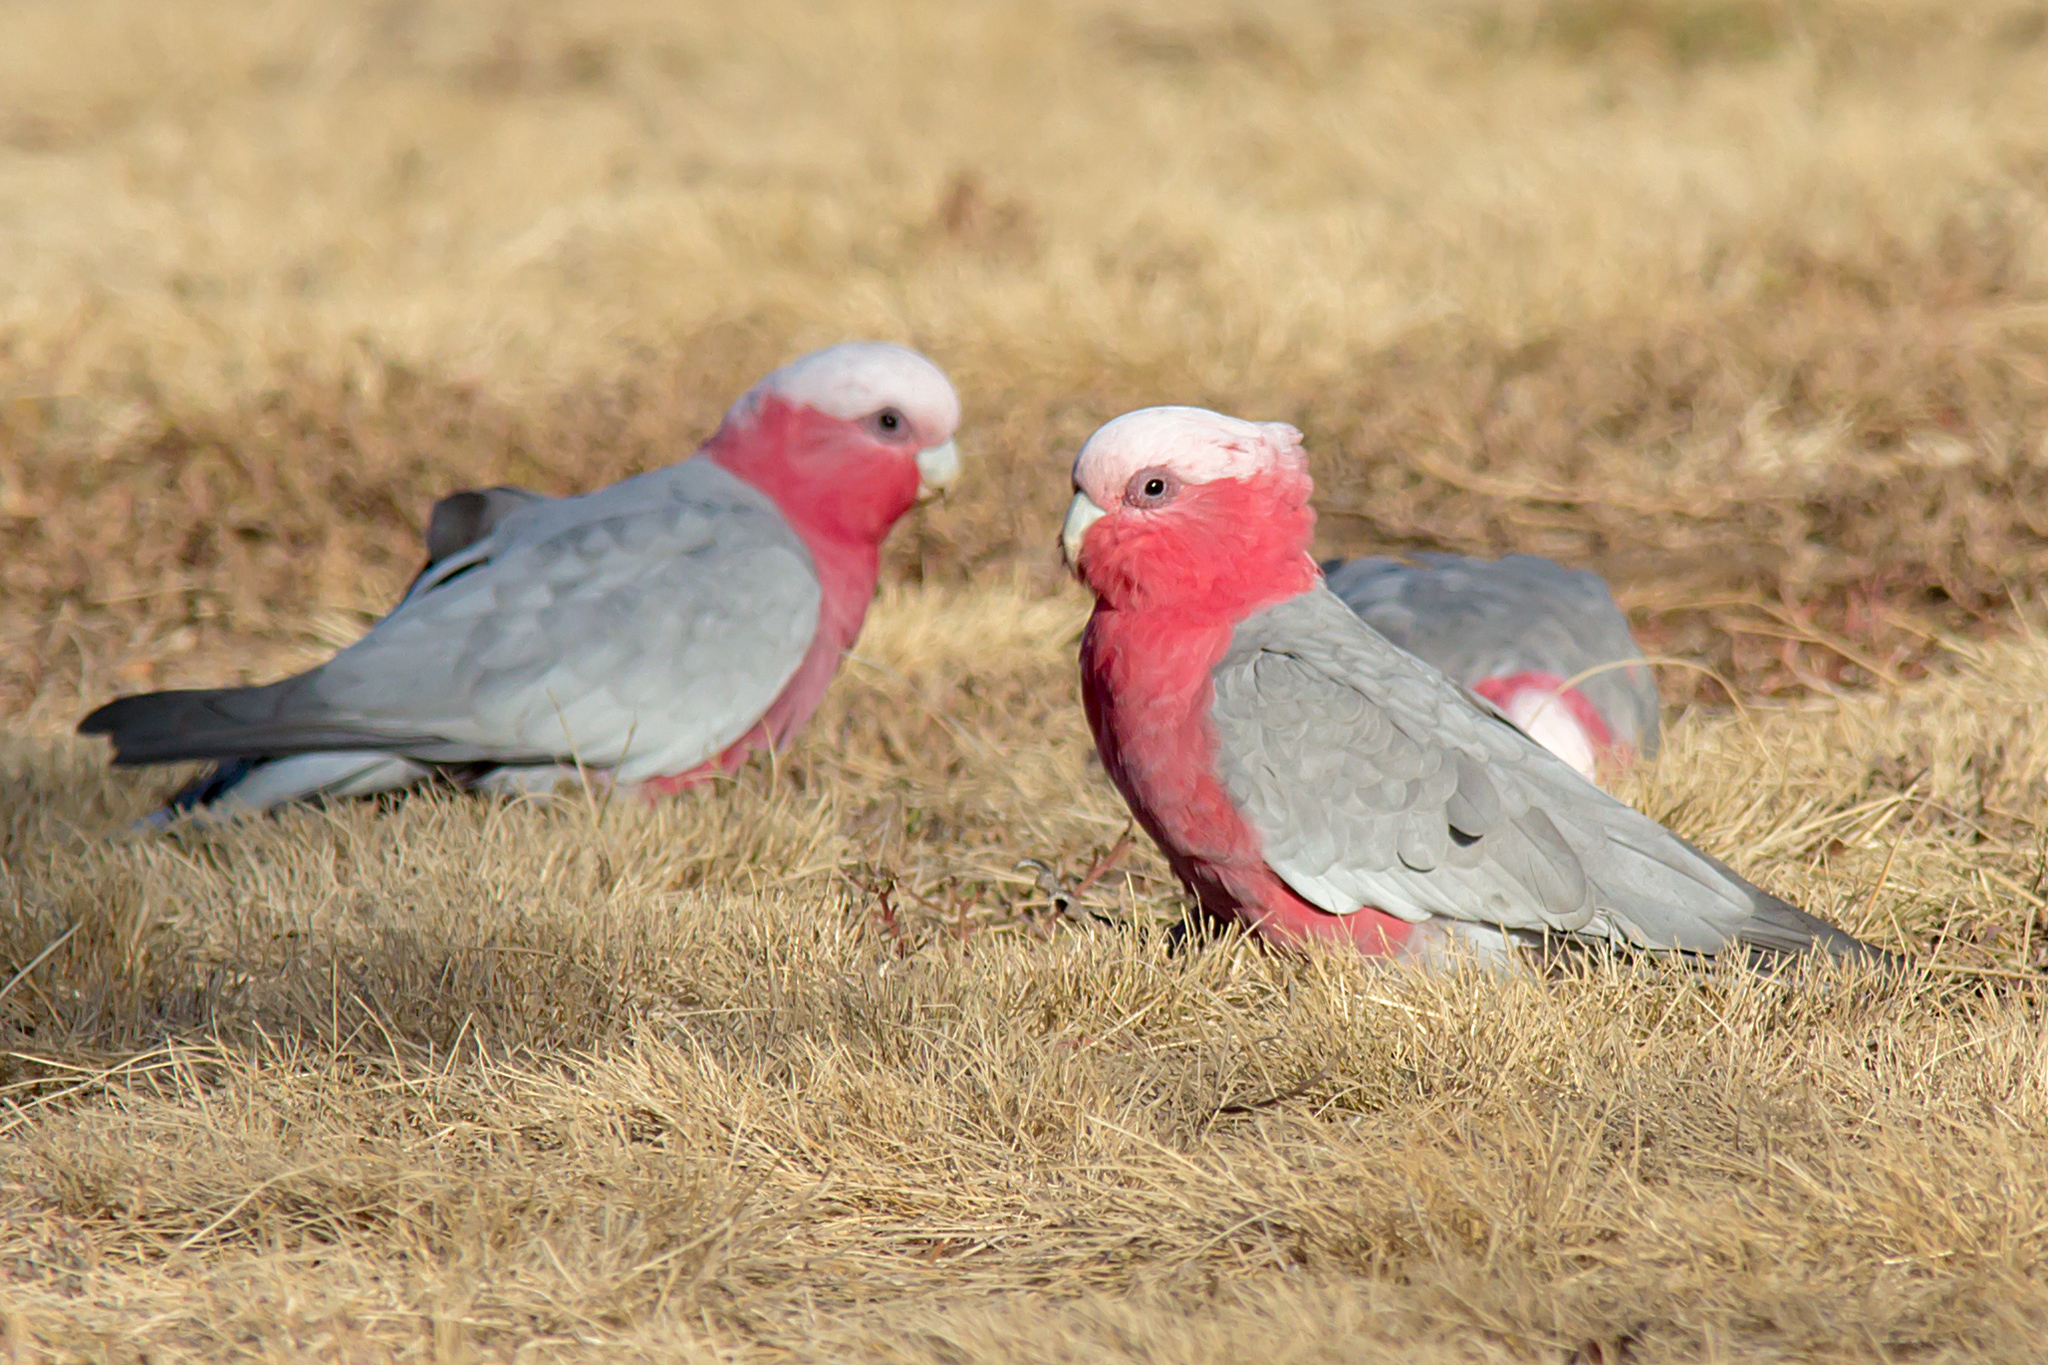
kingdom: Animalia
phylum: Chordata
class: Aves
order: Psittaciformes
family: Psittacidae
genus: Eolophus
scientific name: Eolophus roseicapilla
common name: Galah
